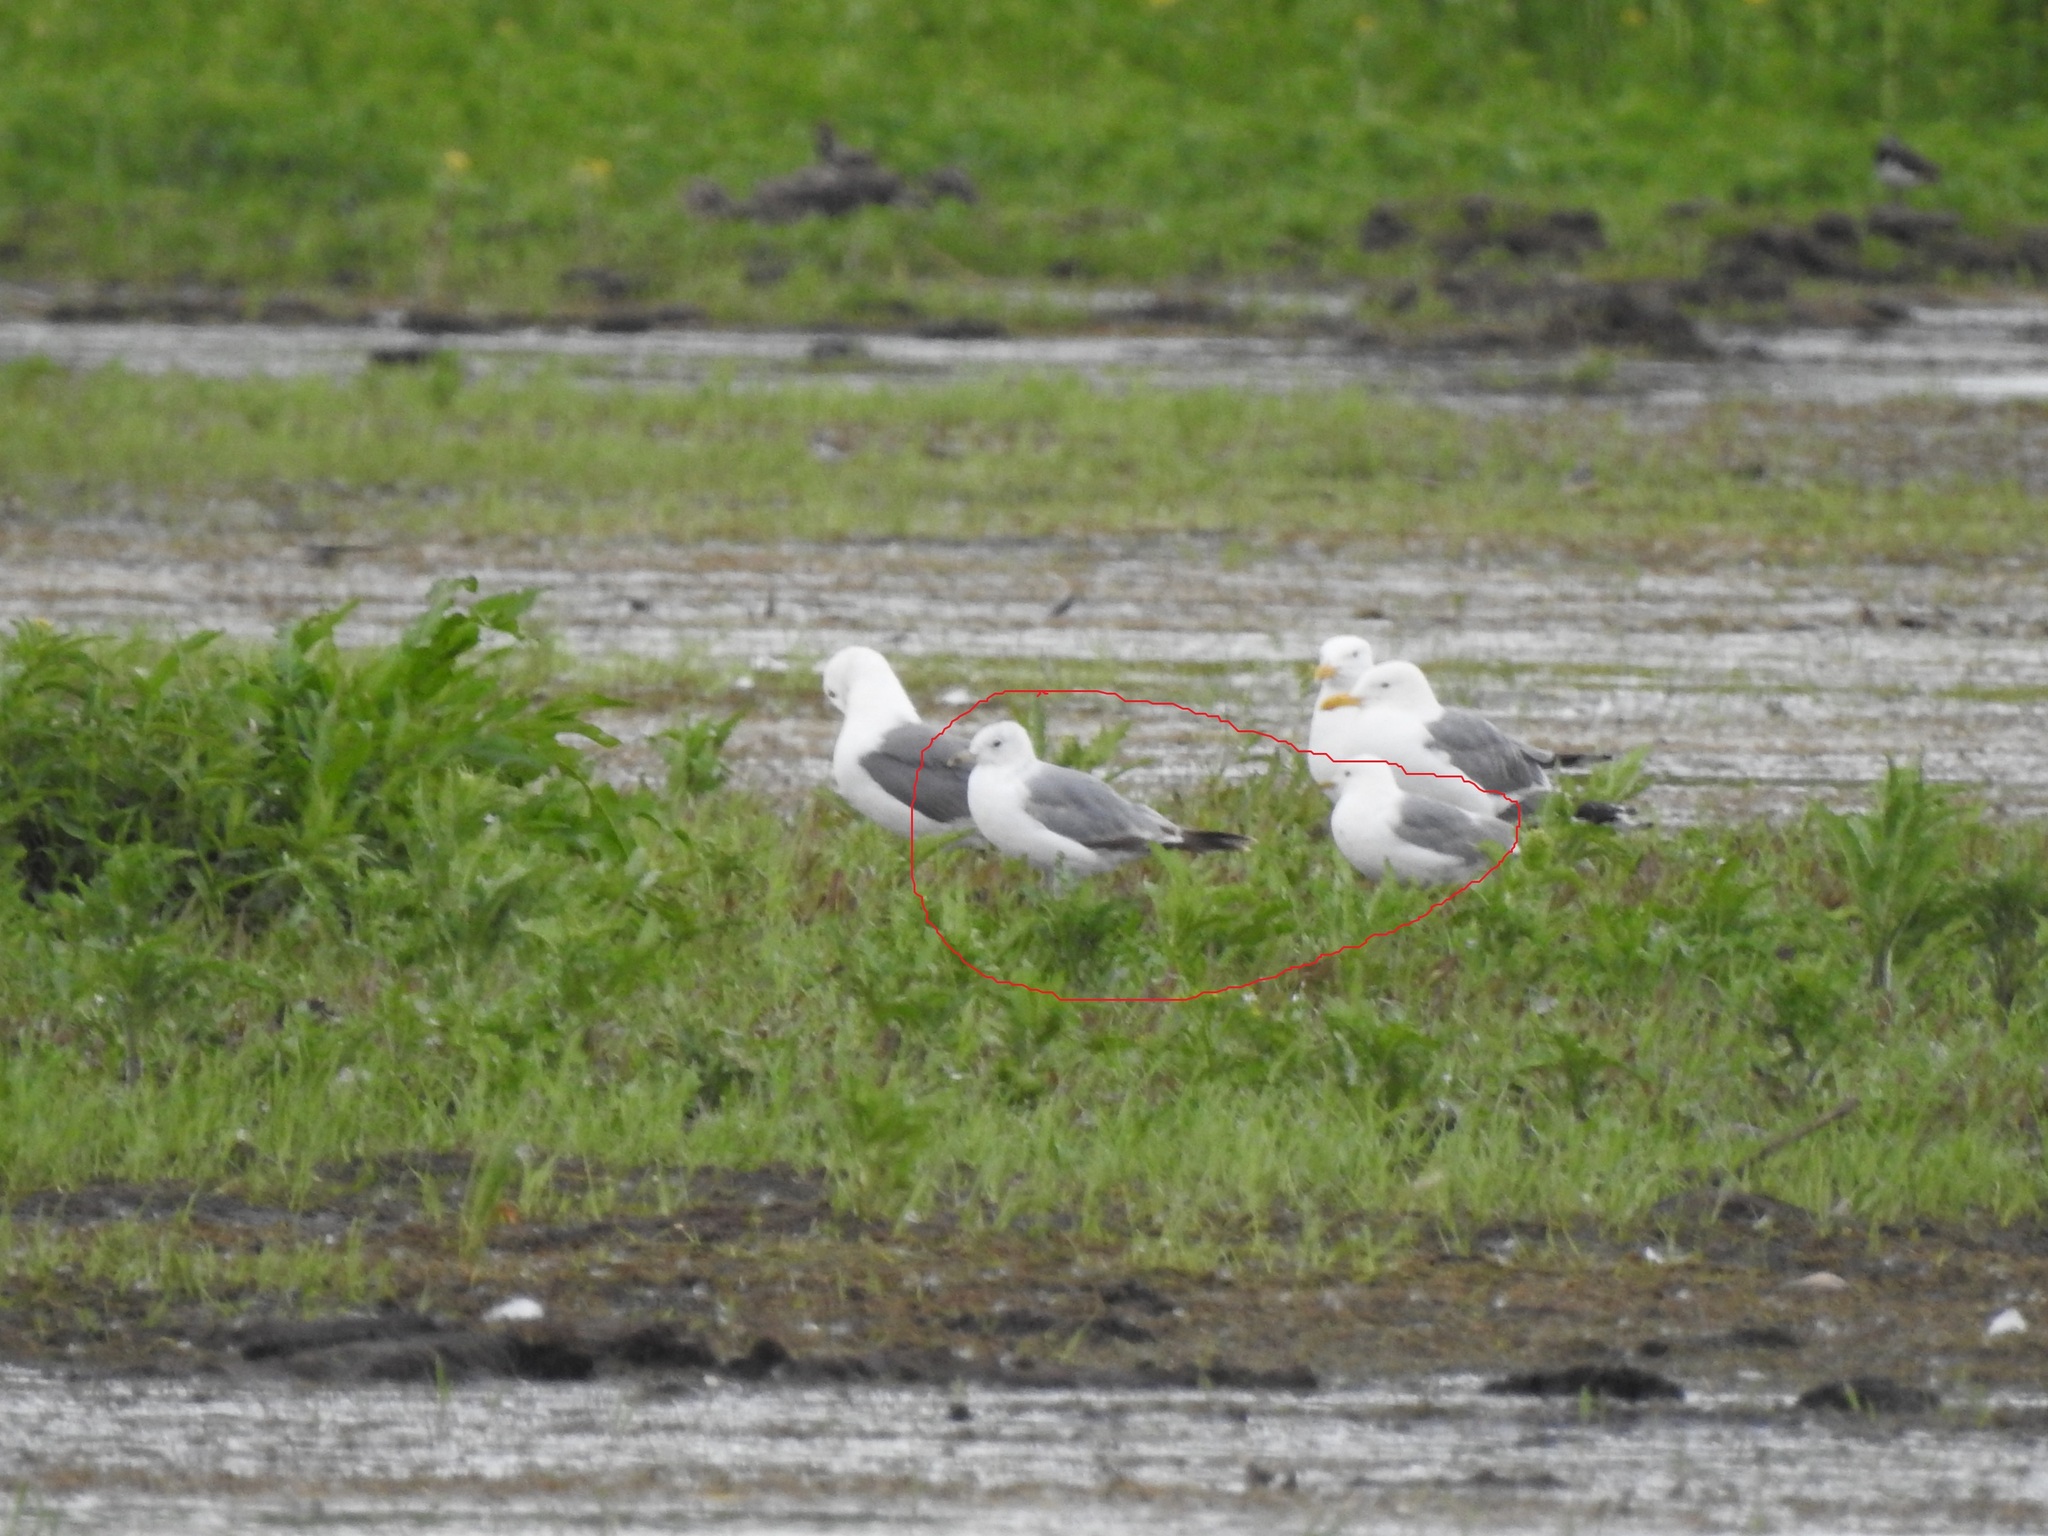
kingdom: Animalia
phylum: Chordata
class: Aves
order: Charadriiformes
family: Laridae
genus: Larus
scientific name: Larus canus
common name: Mew gull
